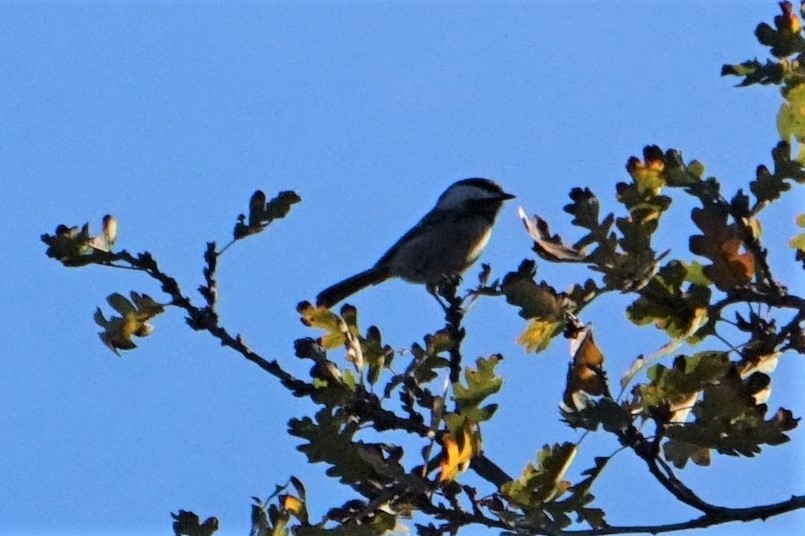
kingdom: Animalia
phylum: Chordata
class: Aves
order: Passeriformes
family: Paridae
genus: Poecile
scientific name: Poecile rufescens
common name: Chestnut-backed chickadee
